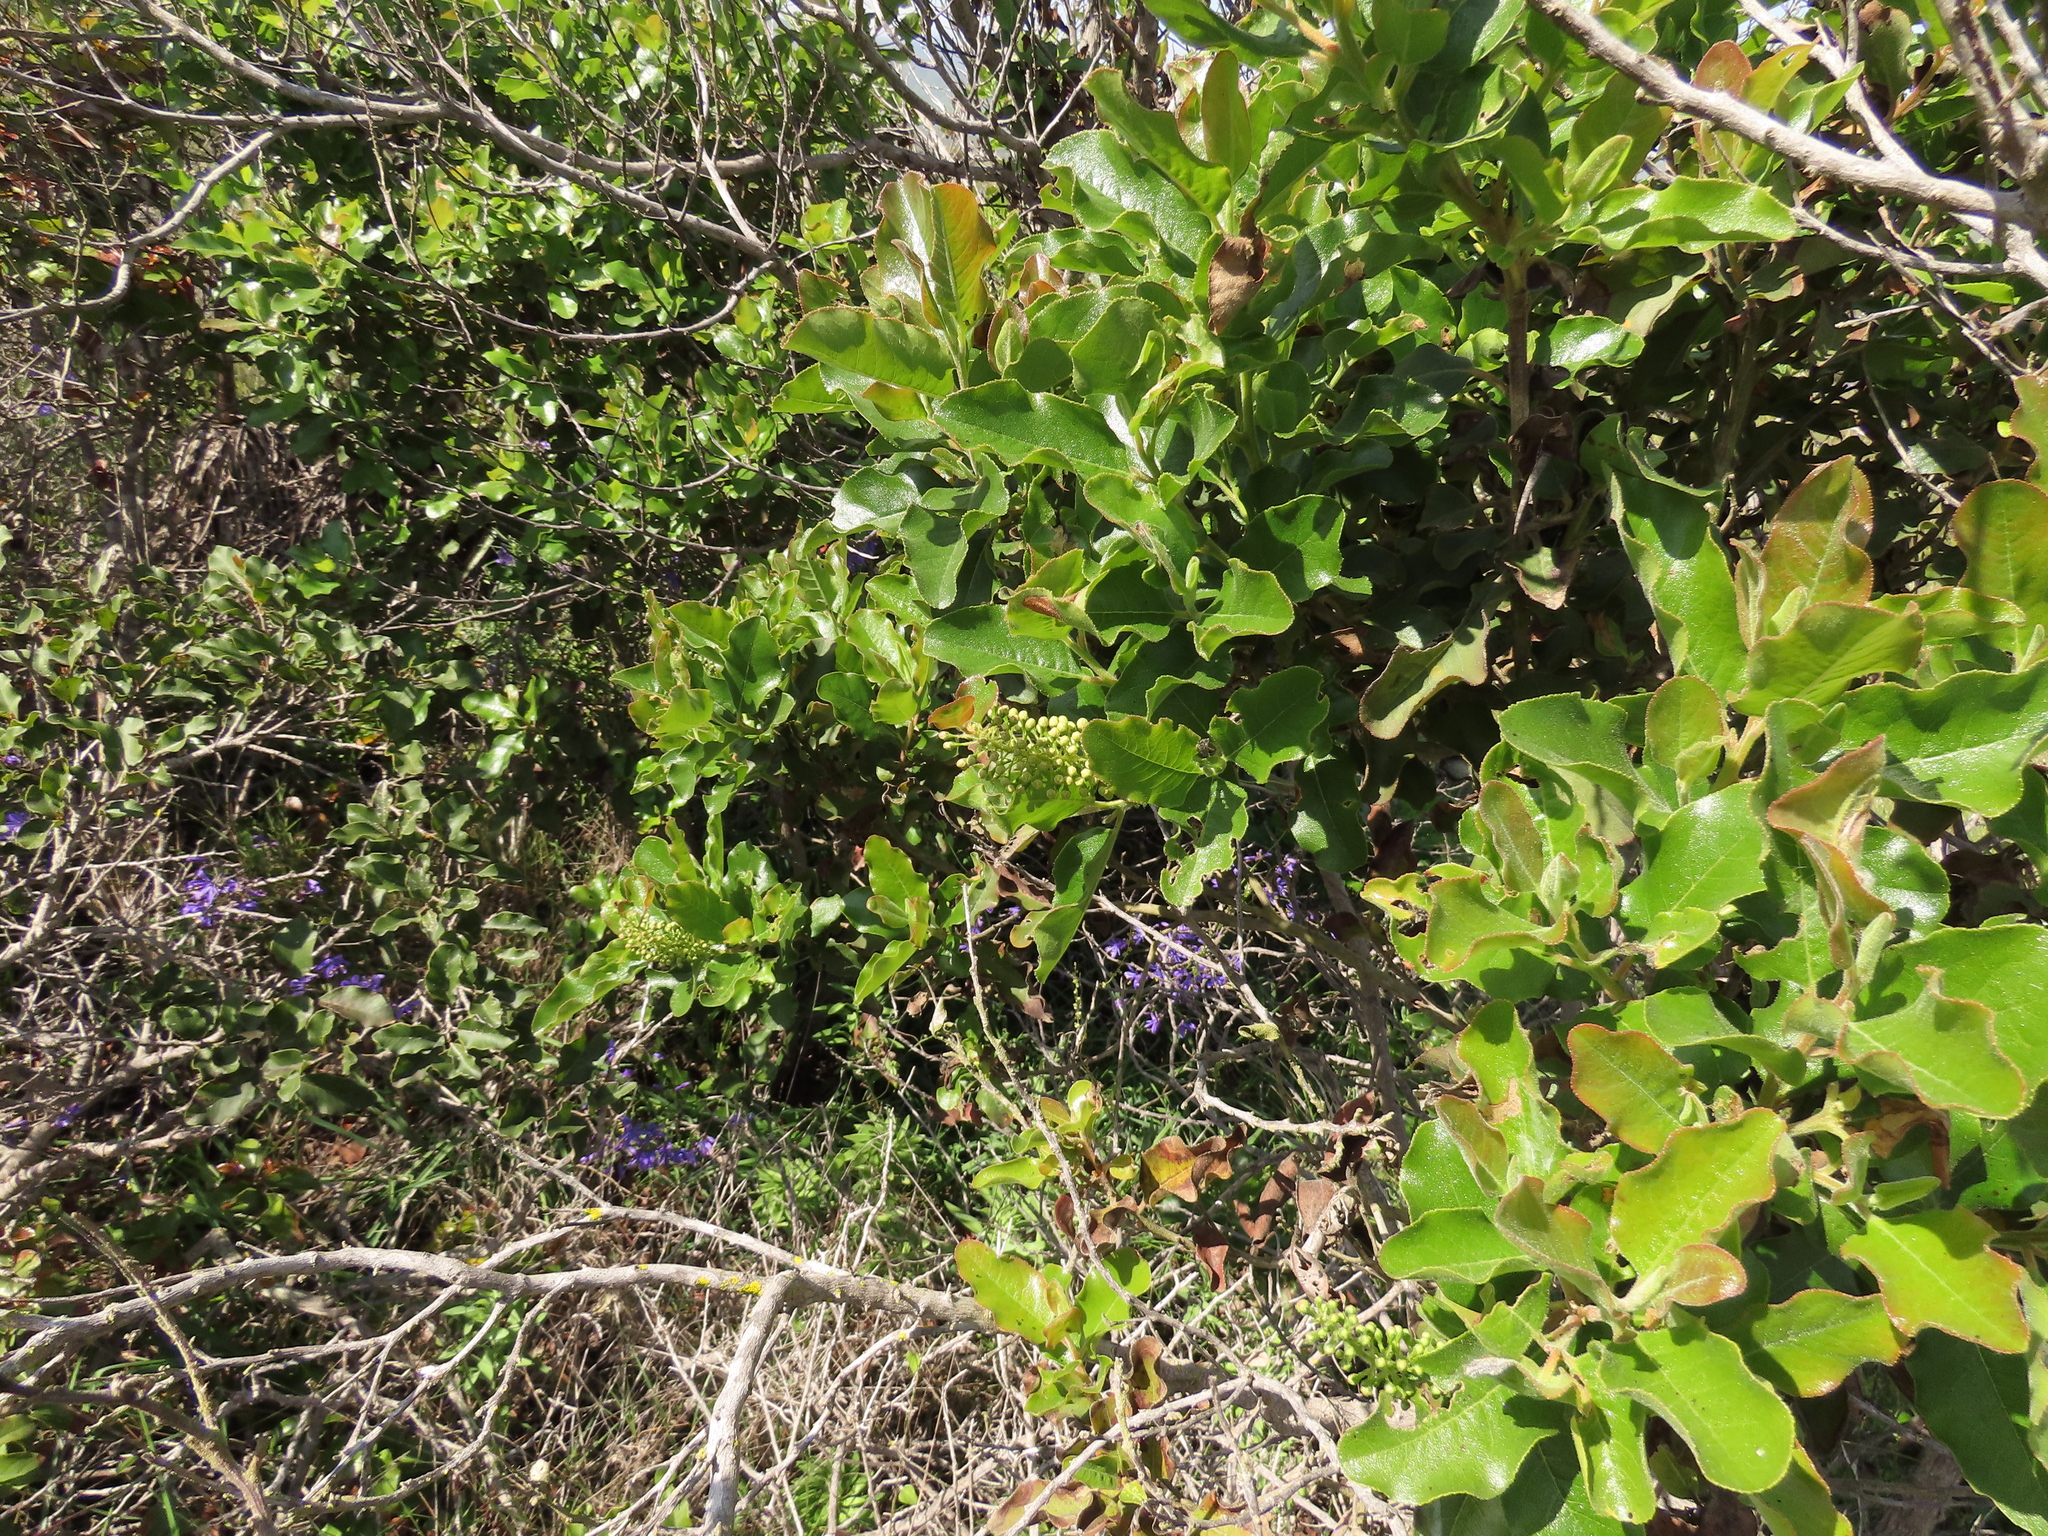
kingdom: Plantae
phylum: Tracheophyta
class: Magnoliopsida
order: Escalloniales
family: Escalloniaceae
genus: Escallonia
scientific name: Escallonia pulverulenta
